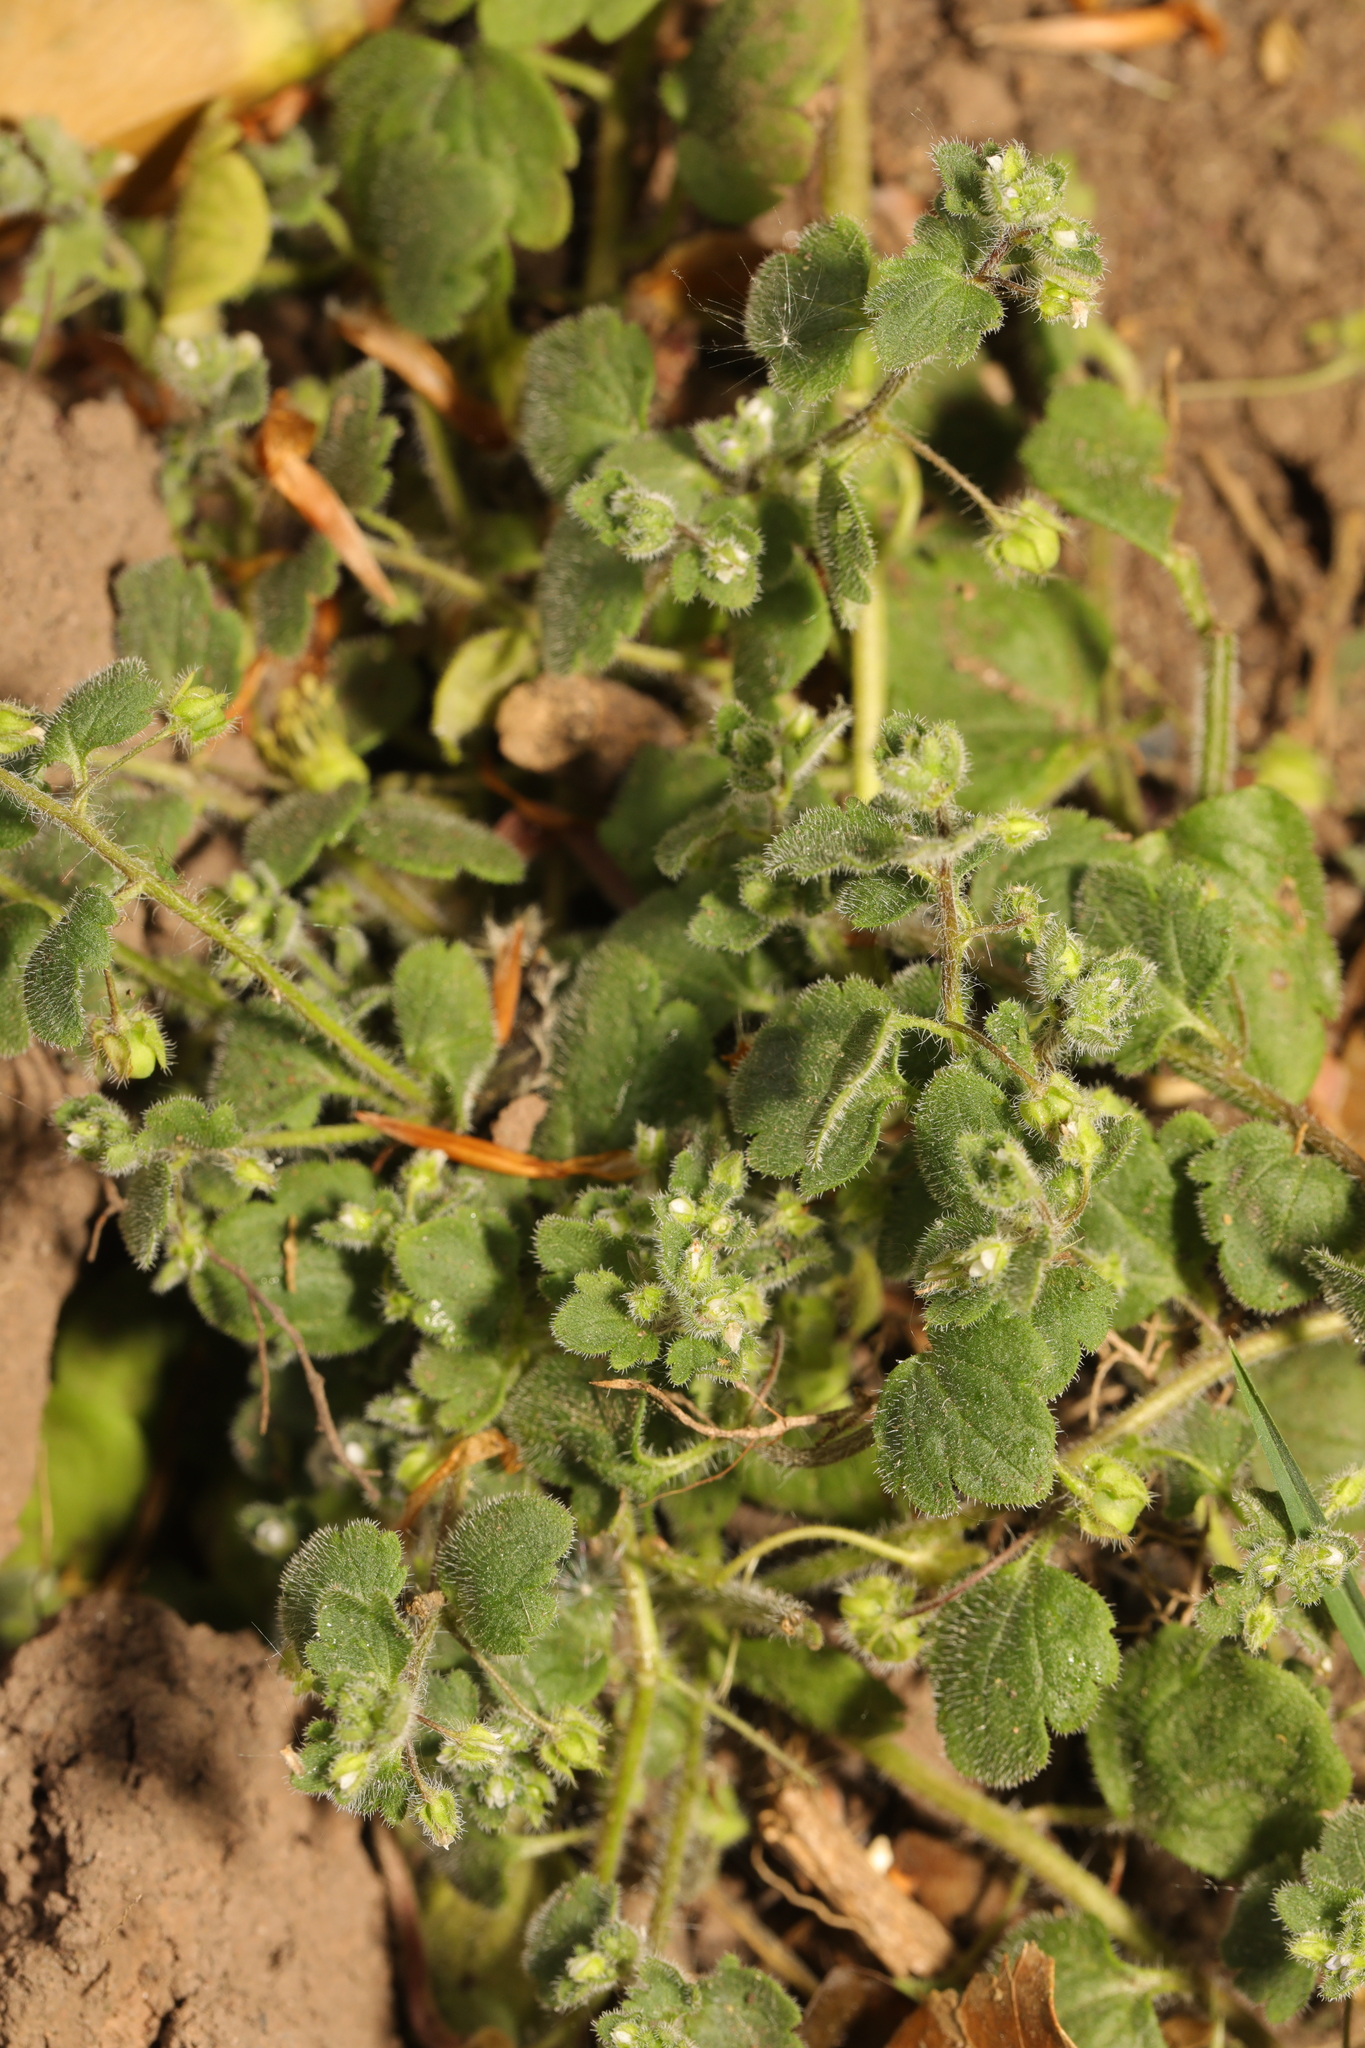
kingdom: Plantae
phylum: Tracheophyta
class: Magnoliopsida
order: Lamiales
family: Plantaginaceae
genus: Veronica
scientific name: Veronica sublobata
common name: False ivy-leaved speedwell
